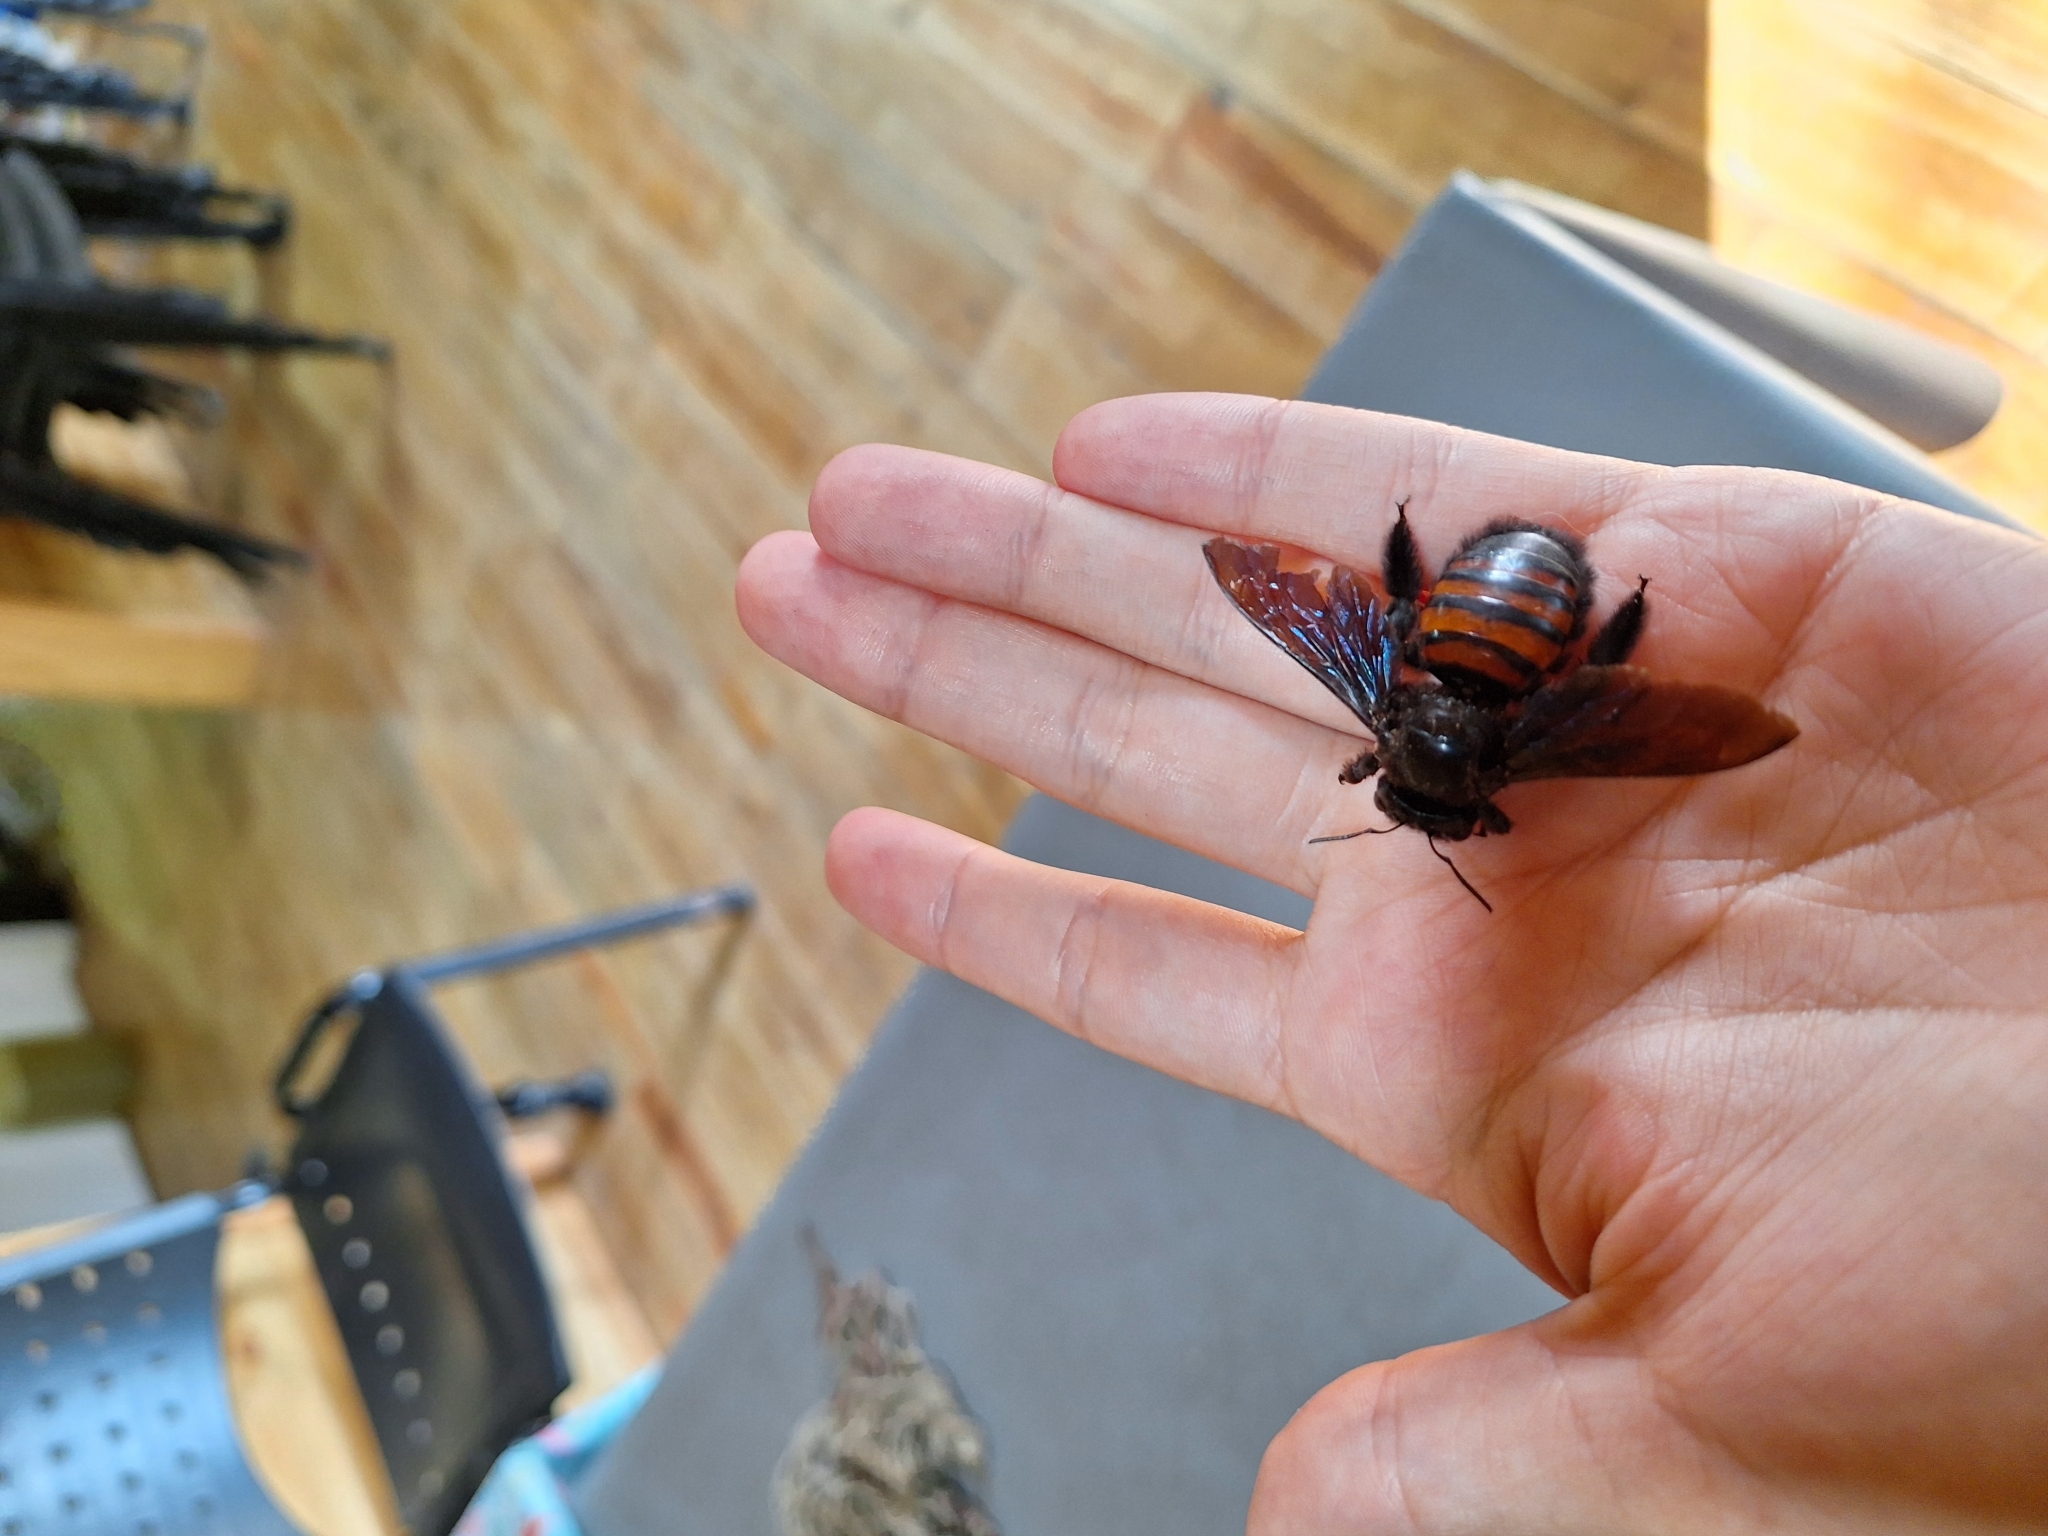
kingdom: Animalia
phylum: Arthropoda
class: Insecta
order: Hymenoptera
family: Apidae
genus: Xylocopa
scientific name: Xylocopa frontalis
